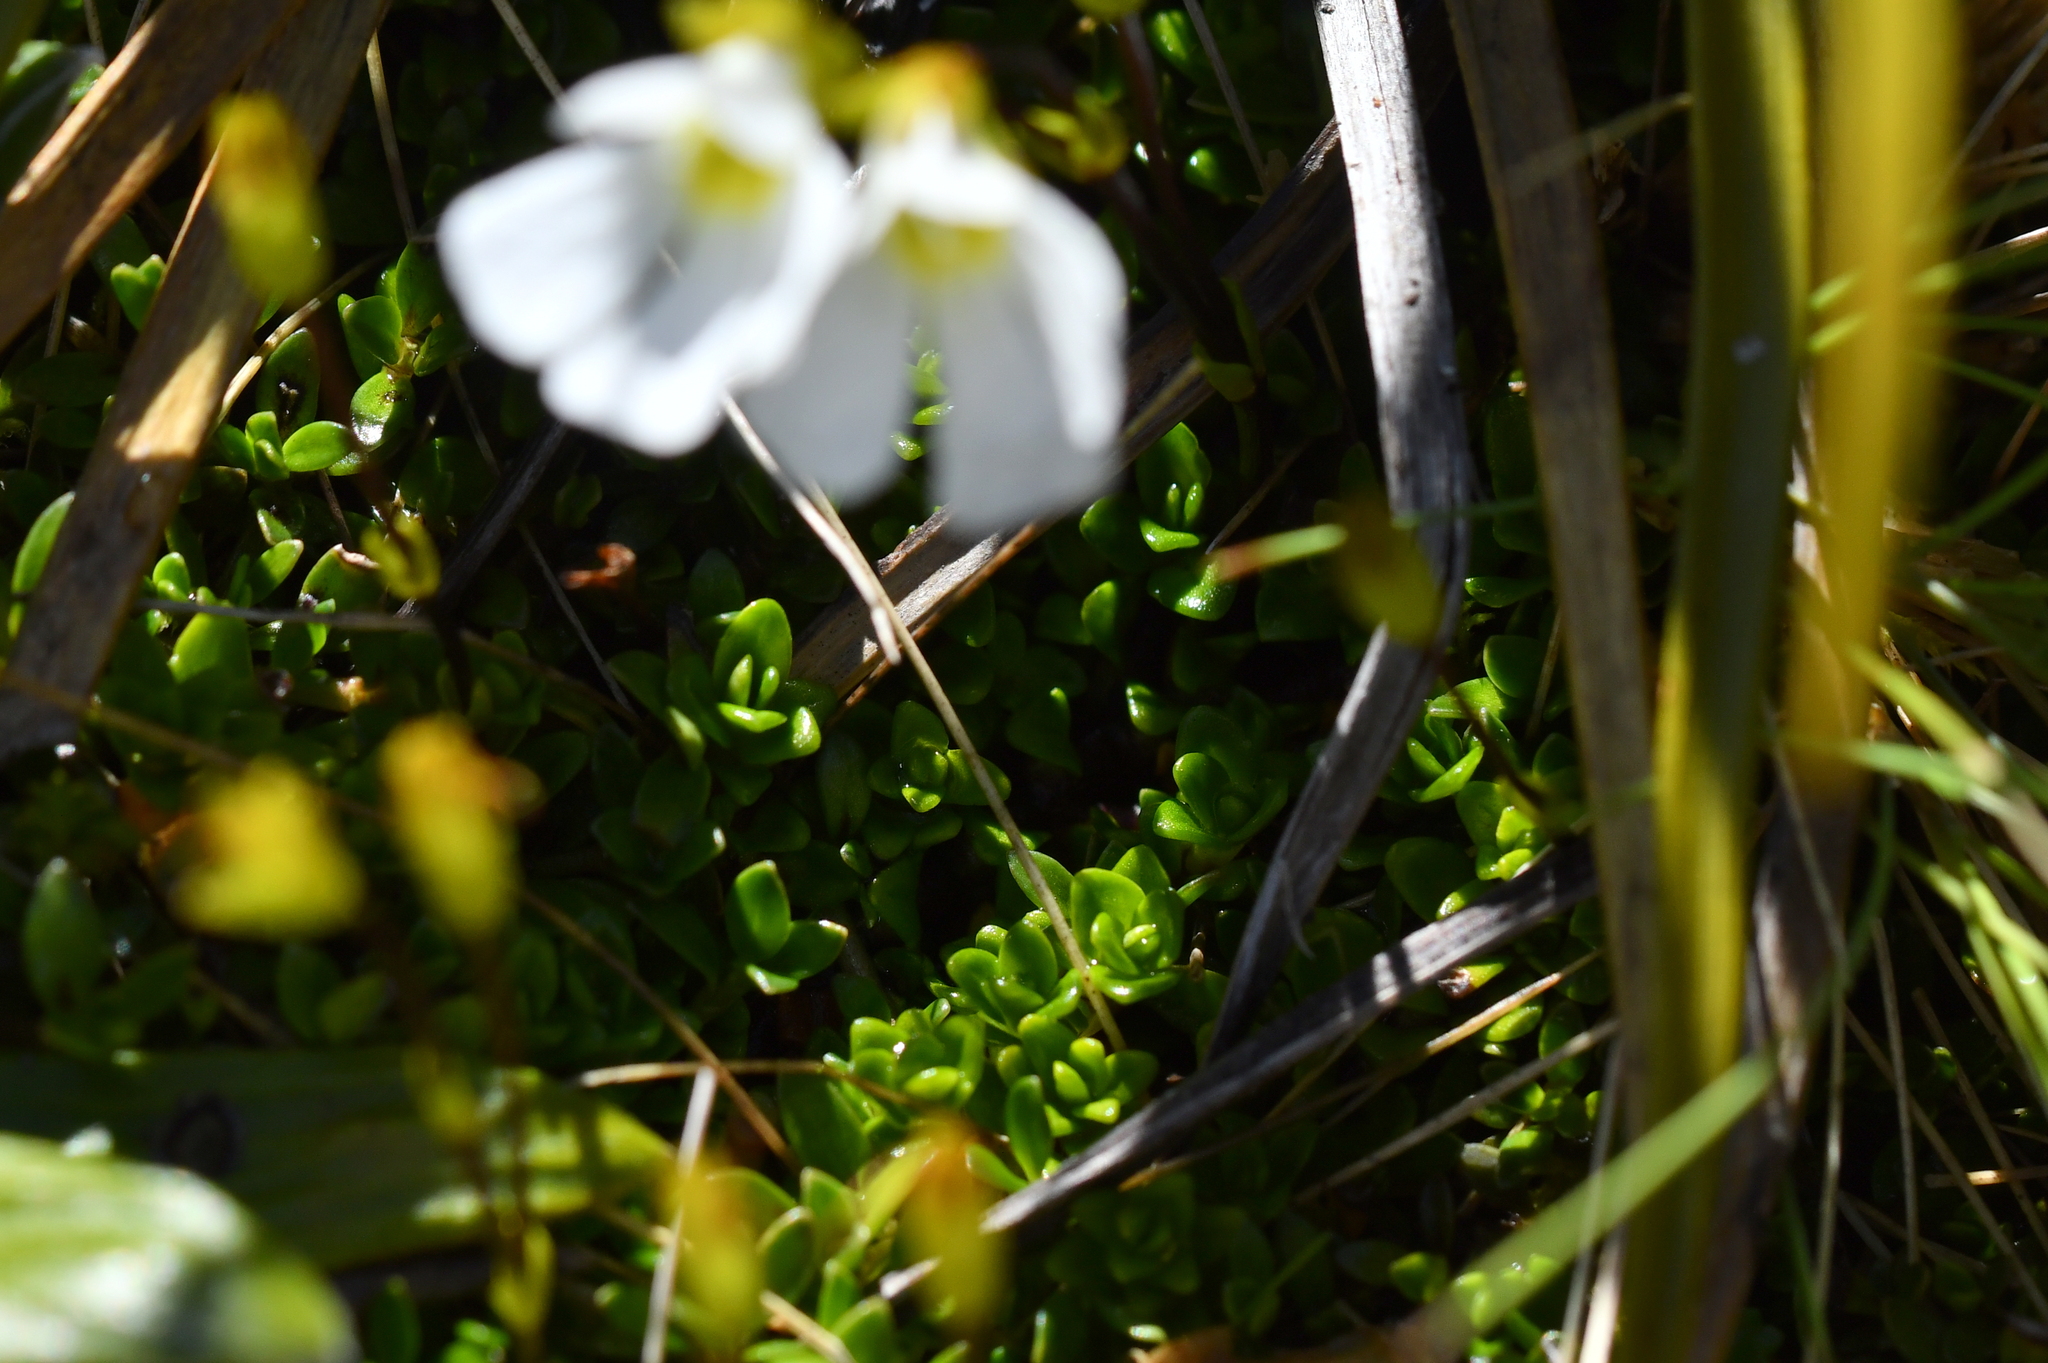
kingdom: Plantae
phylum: Tracheophyta
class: Magnoliopsida
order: Lamiales
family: Plantaginaceae
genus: Ourisia
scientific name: Ourisia caespitosa
